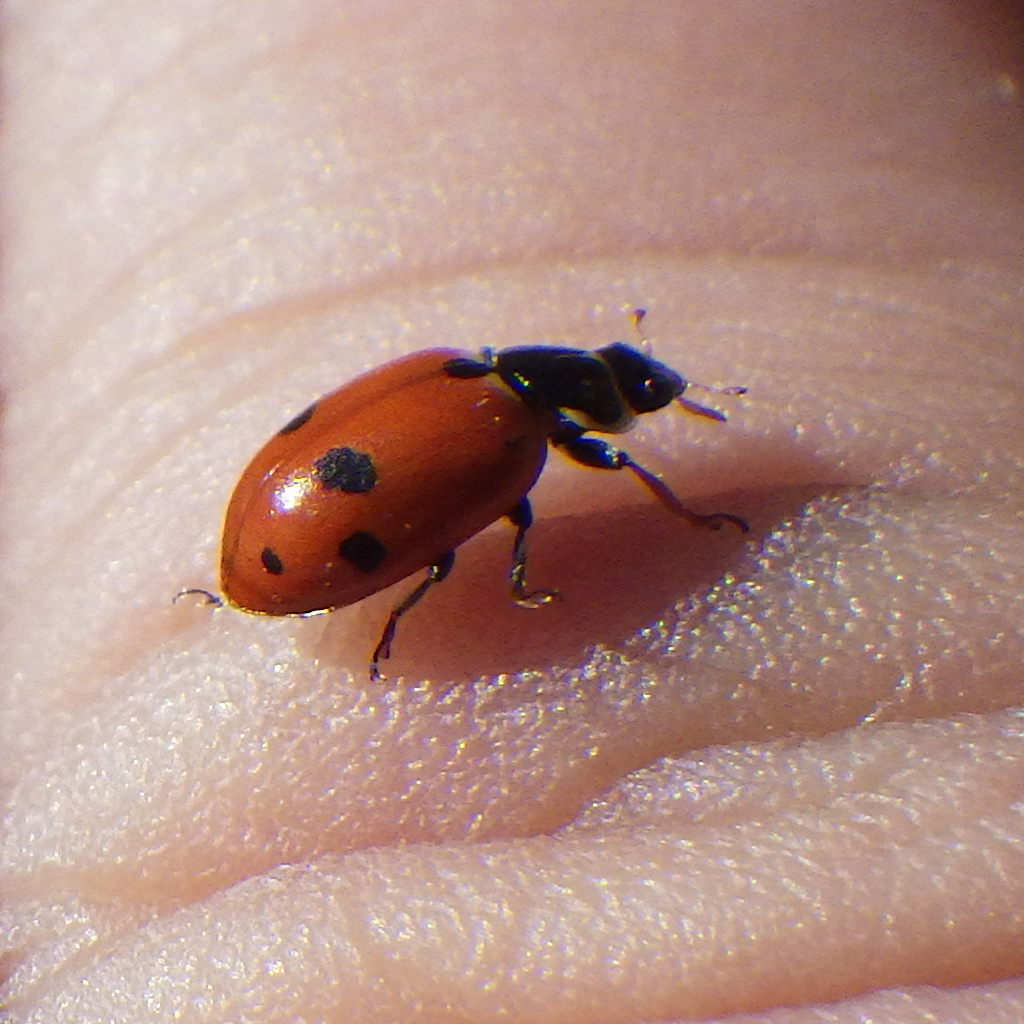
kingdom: Animalia
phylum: Arthropoda
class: Insecta
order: Coleoptera
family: Coccinellidae
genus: Hippodamia
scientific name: Hippodamia variegata
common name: Ladybird beetle
